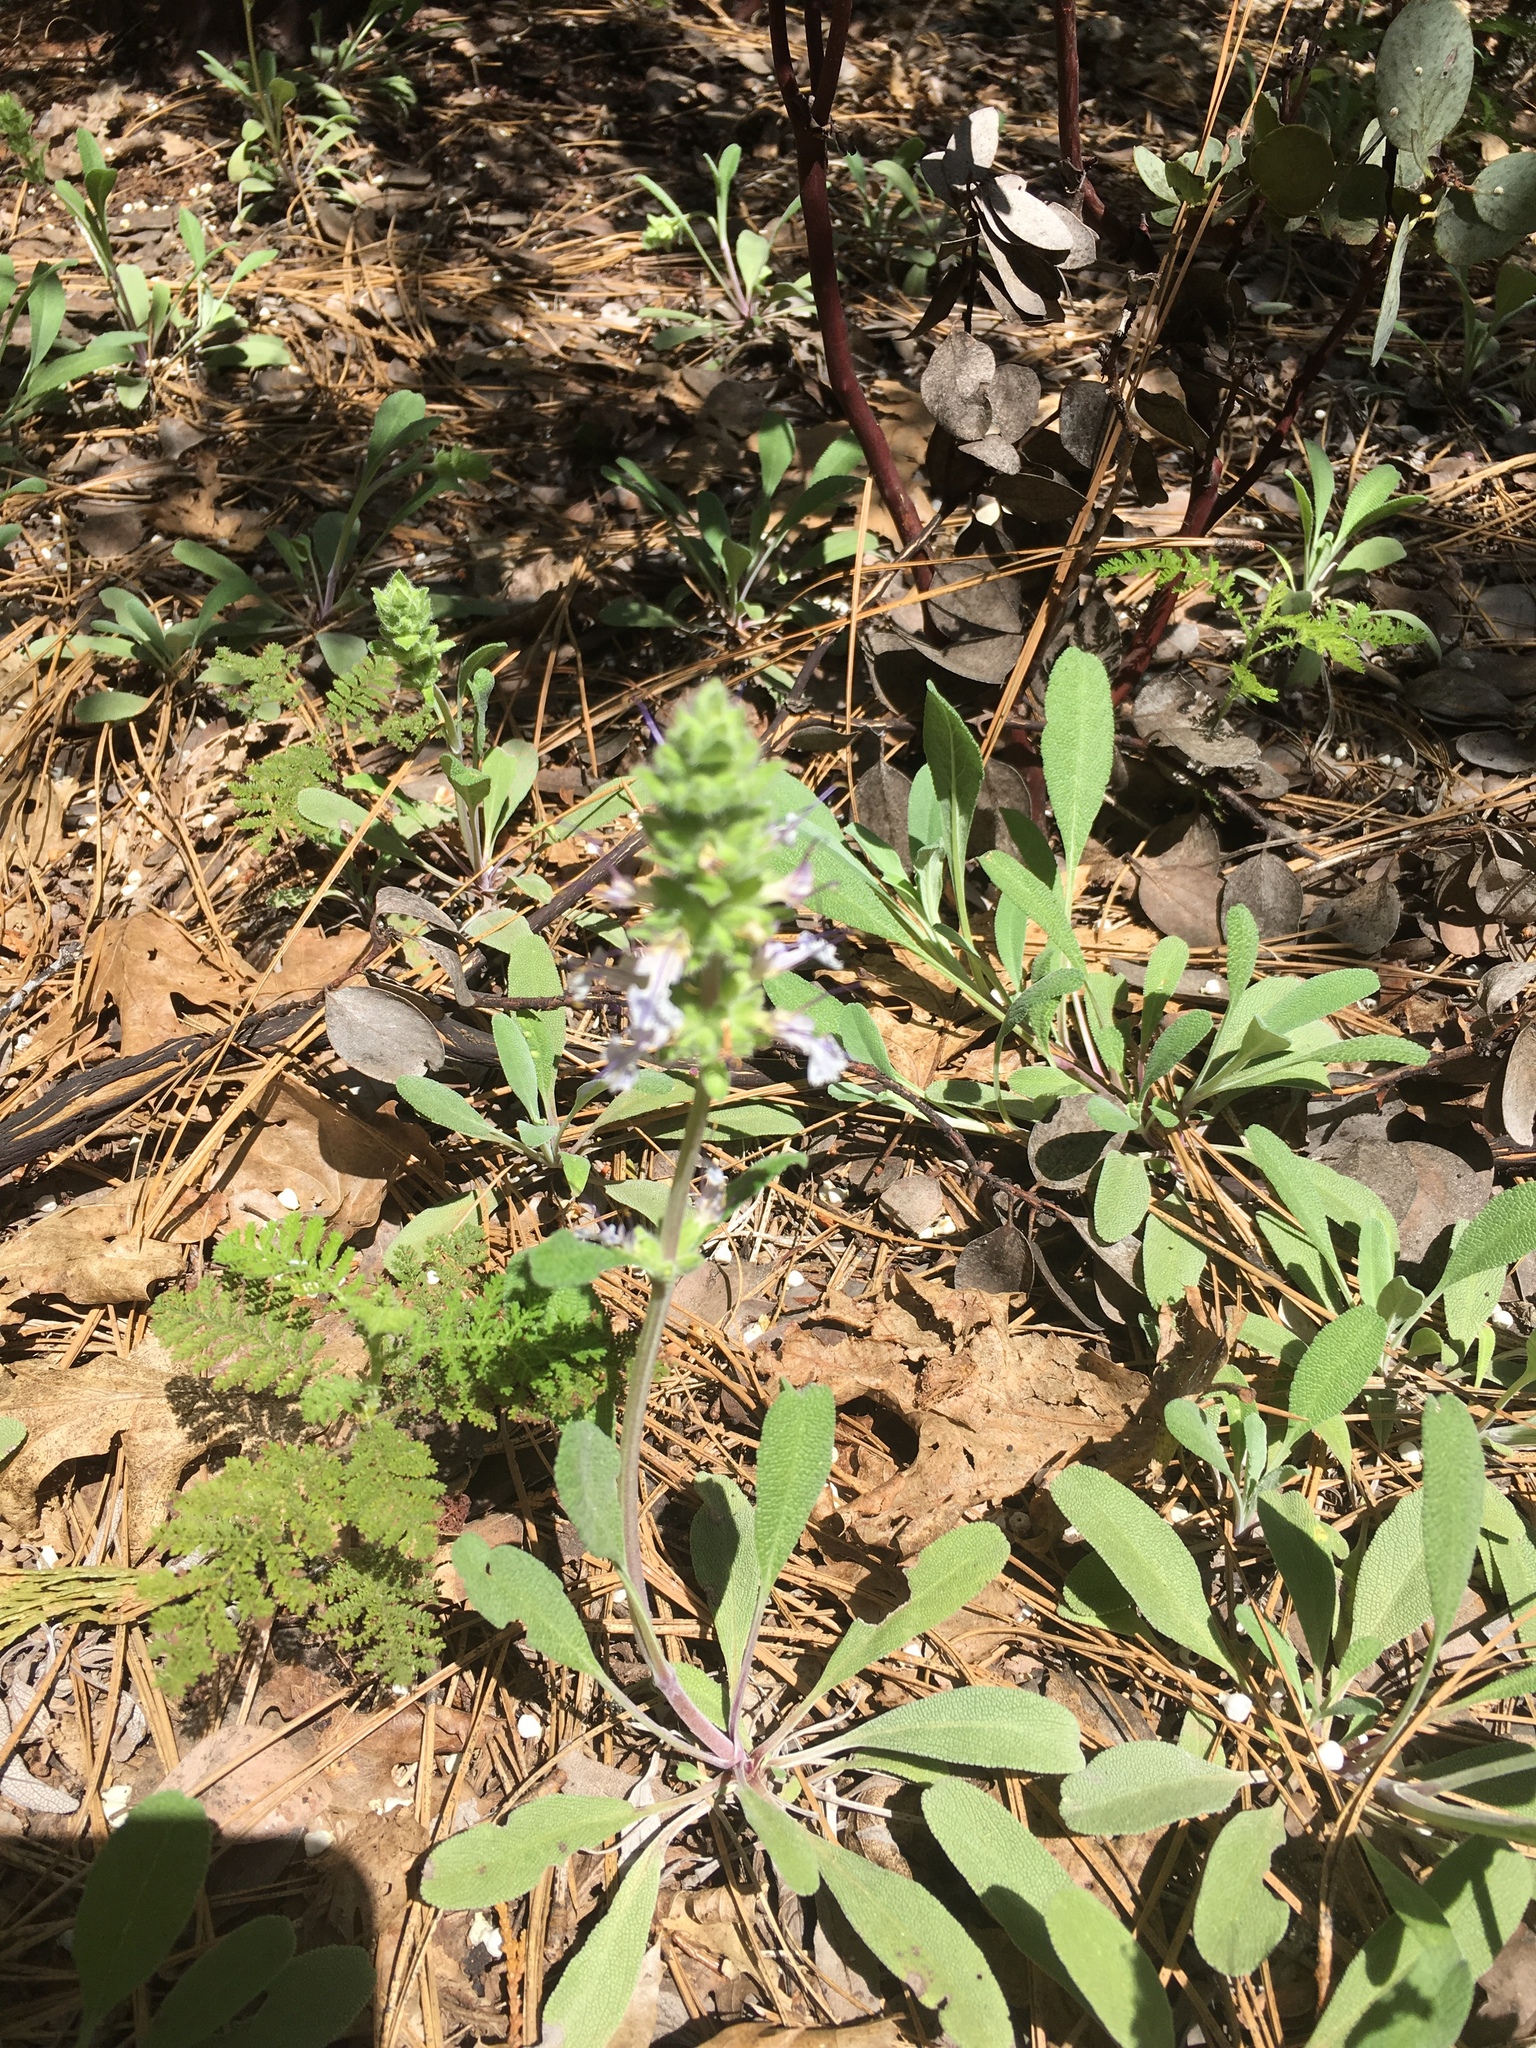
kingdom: Plantae
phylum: Tracheophyta
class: Magnoliopsida
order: Lamiales
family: Lamiaceae
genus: Salvia
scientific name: Salvia sonomensis
